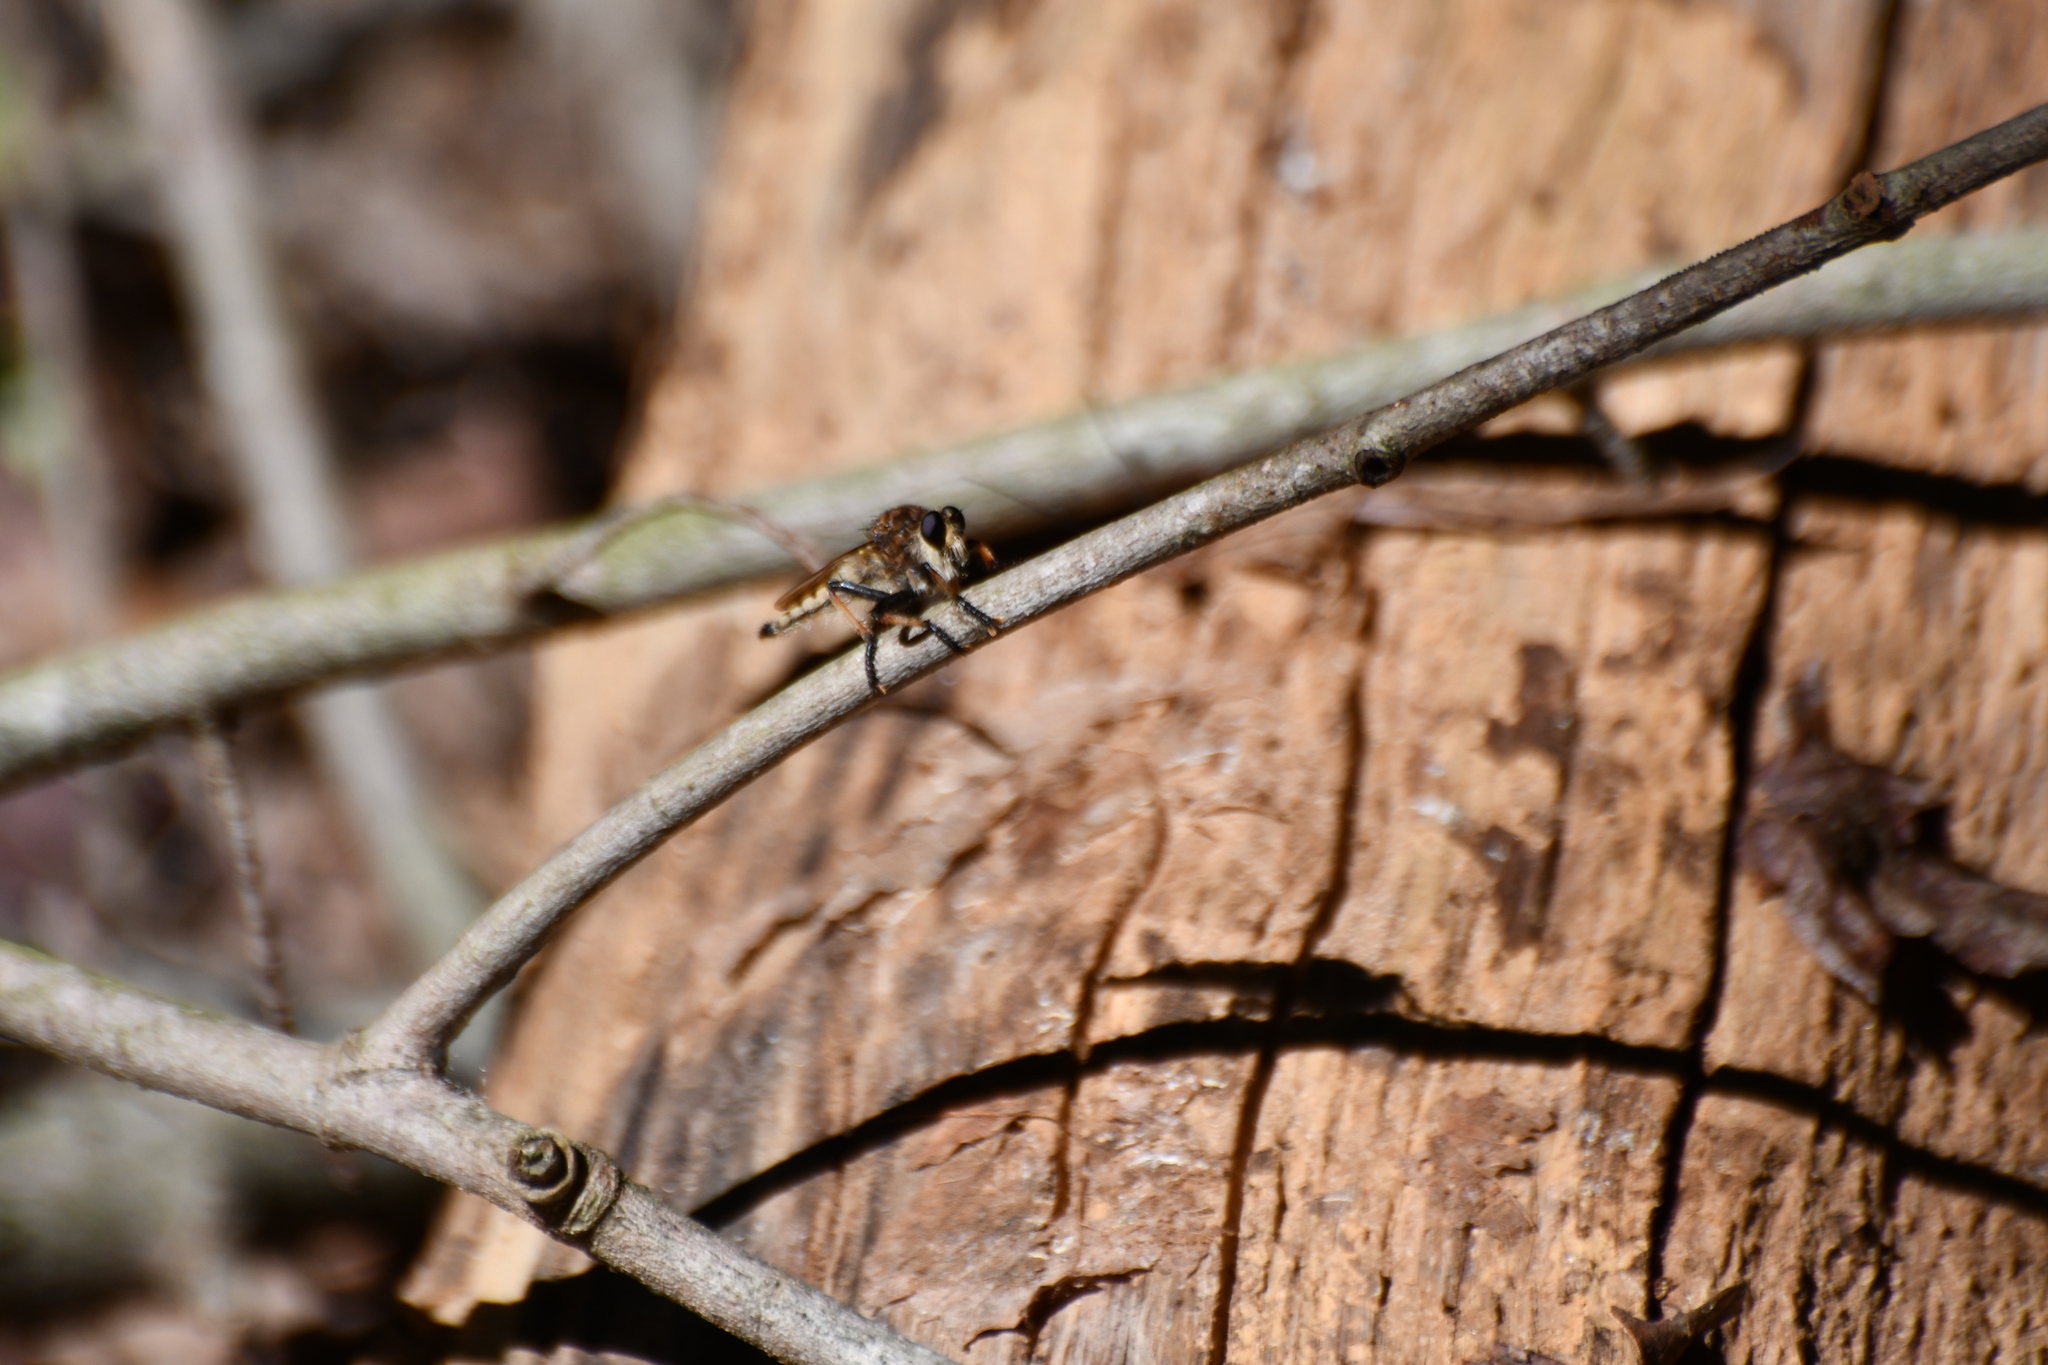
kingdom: Animalia
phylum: Arthropoda
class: Insecta
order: Diptera
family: Asilidae
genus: Promachus
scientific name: Promachus rufipes
